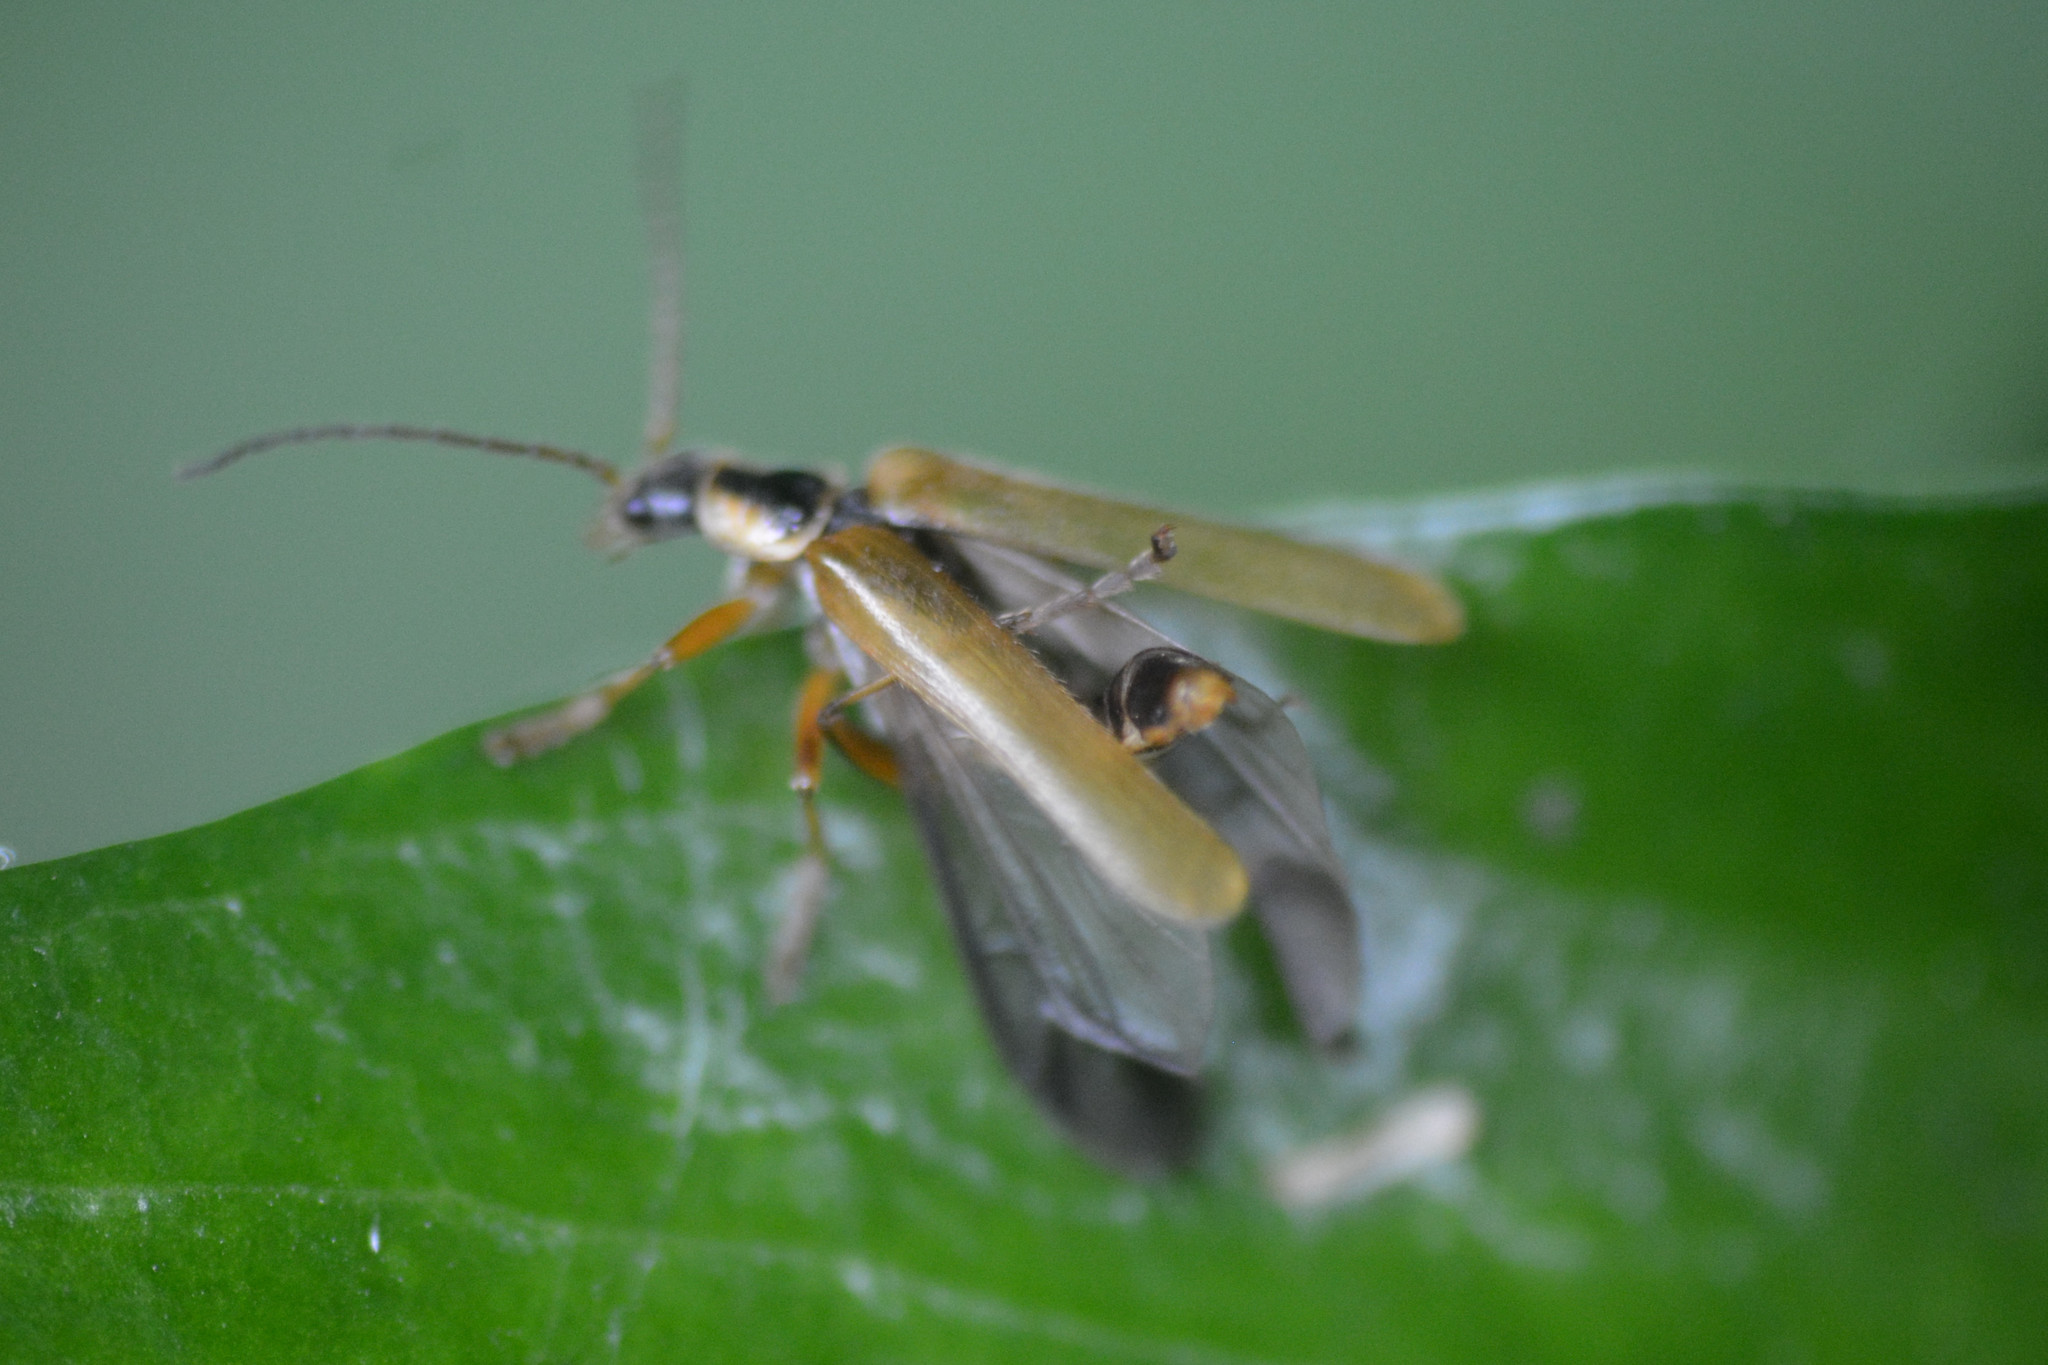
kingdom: Animalia
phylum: Arthropoda
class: Insecta
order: Coleoptera
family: Cantharidae
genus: Cantharis
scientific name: Cantharis decipiens
